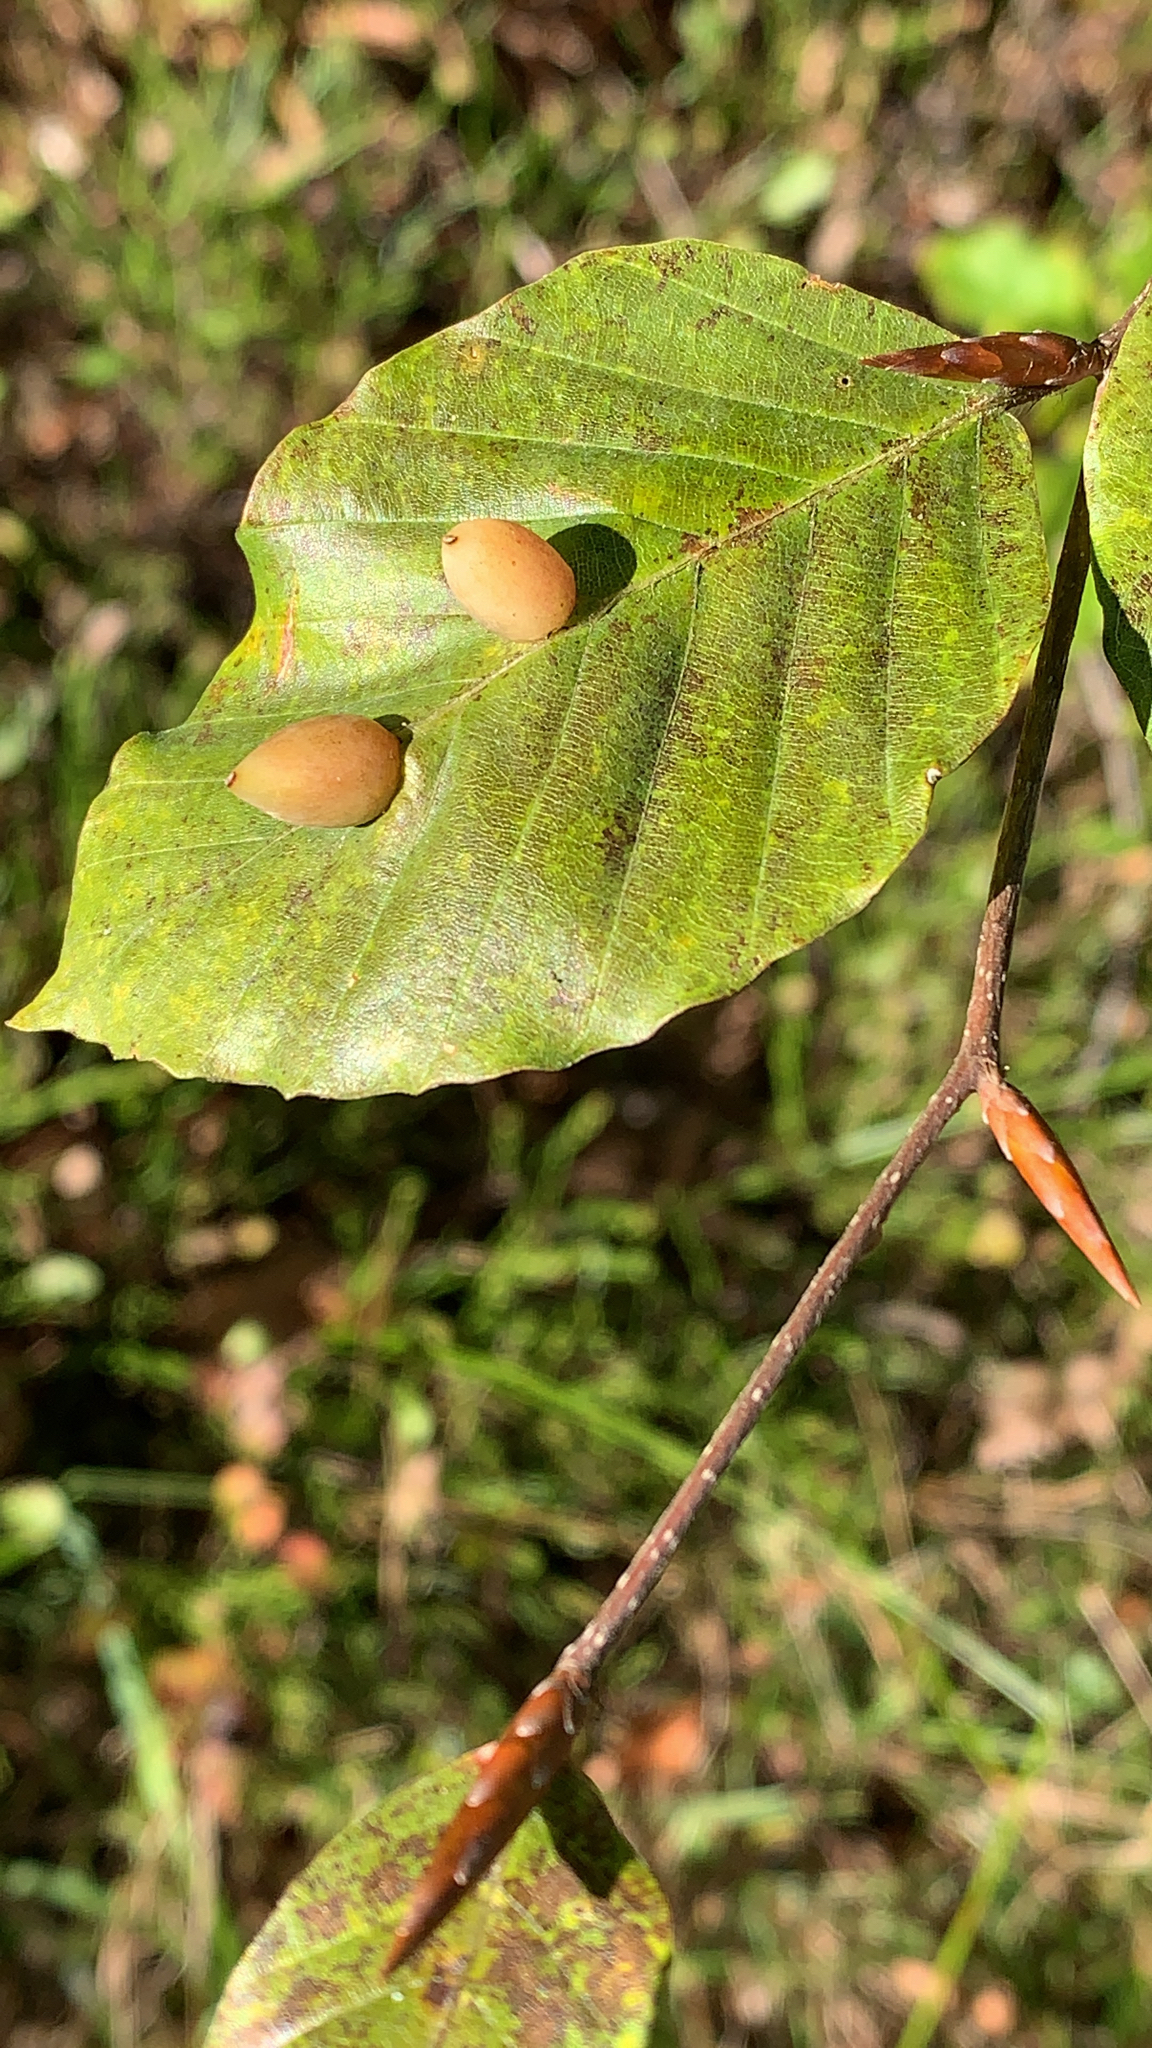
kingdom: Animalia
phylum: Arthropoda
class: Insecta
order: Diptera
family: Cecidomyiidae
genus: Mikiola
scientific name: Mikiola fagi
